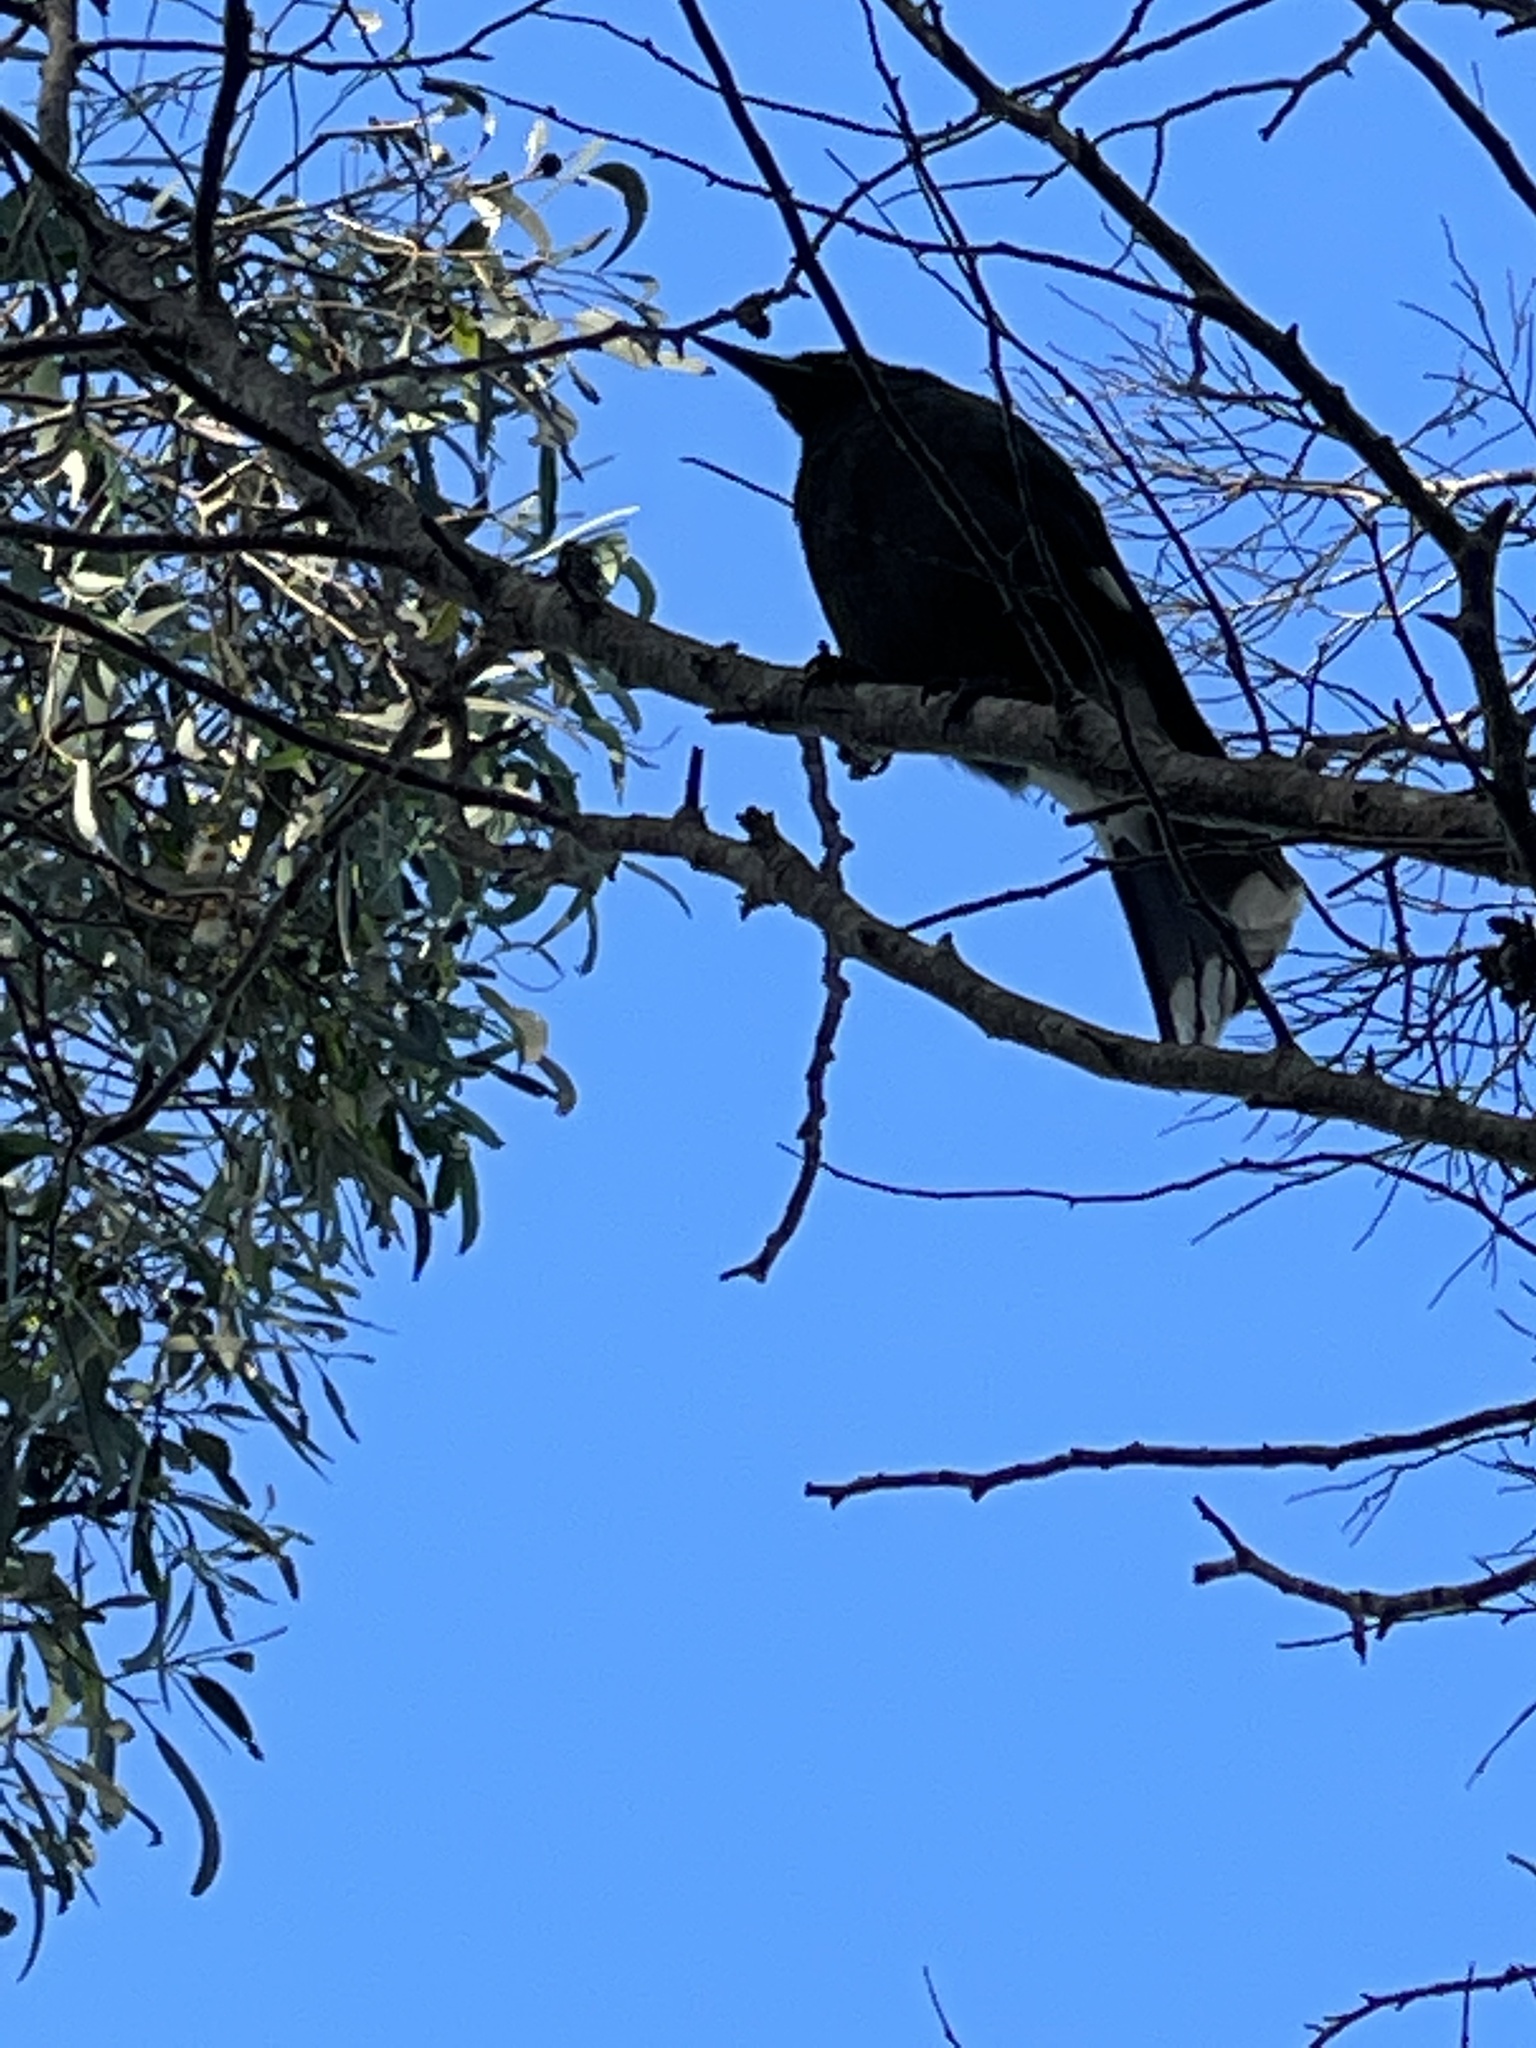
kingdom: Animalia
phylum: Chordata
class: Aves
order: Passeriformes
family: Cracticidae
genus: Strepera
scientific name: Strepera graculina
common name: Pied currawong
